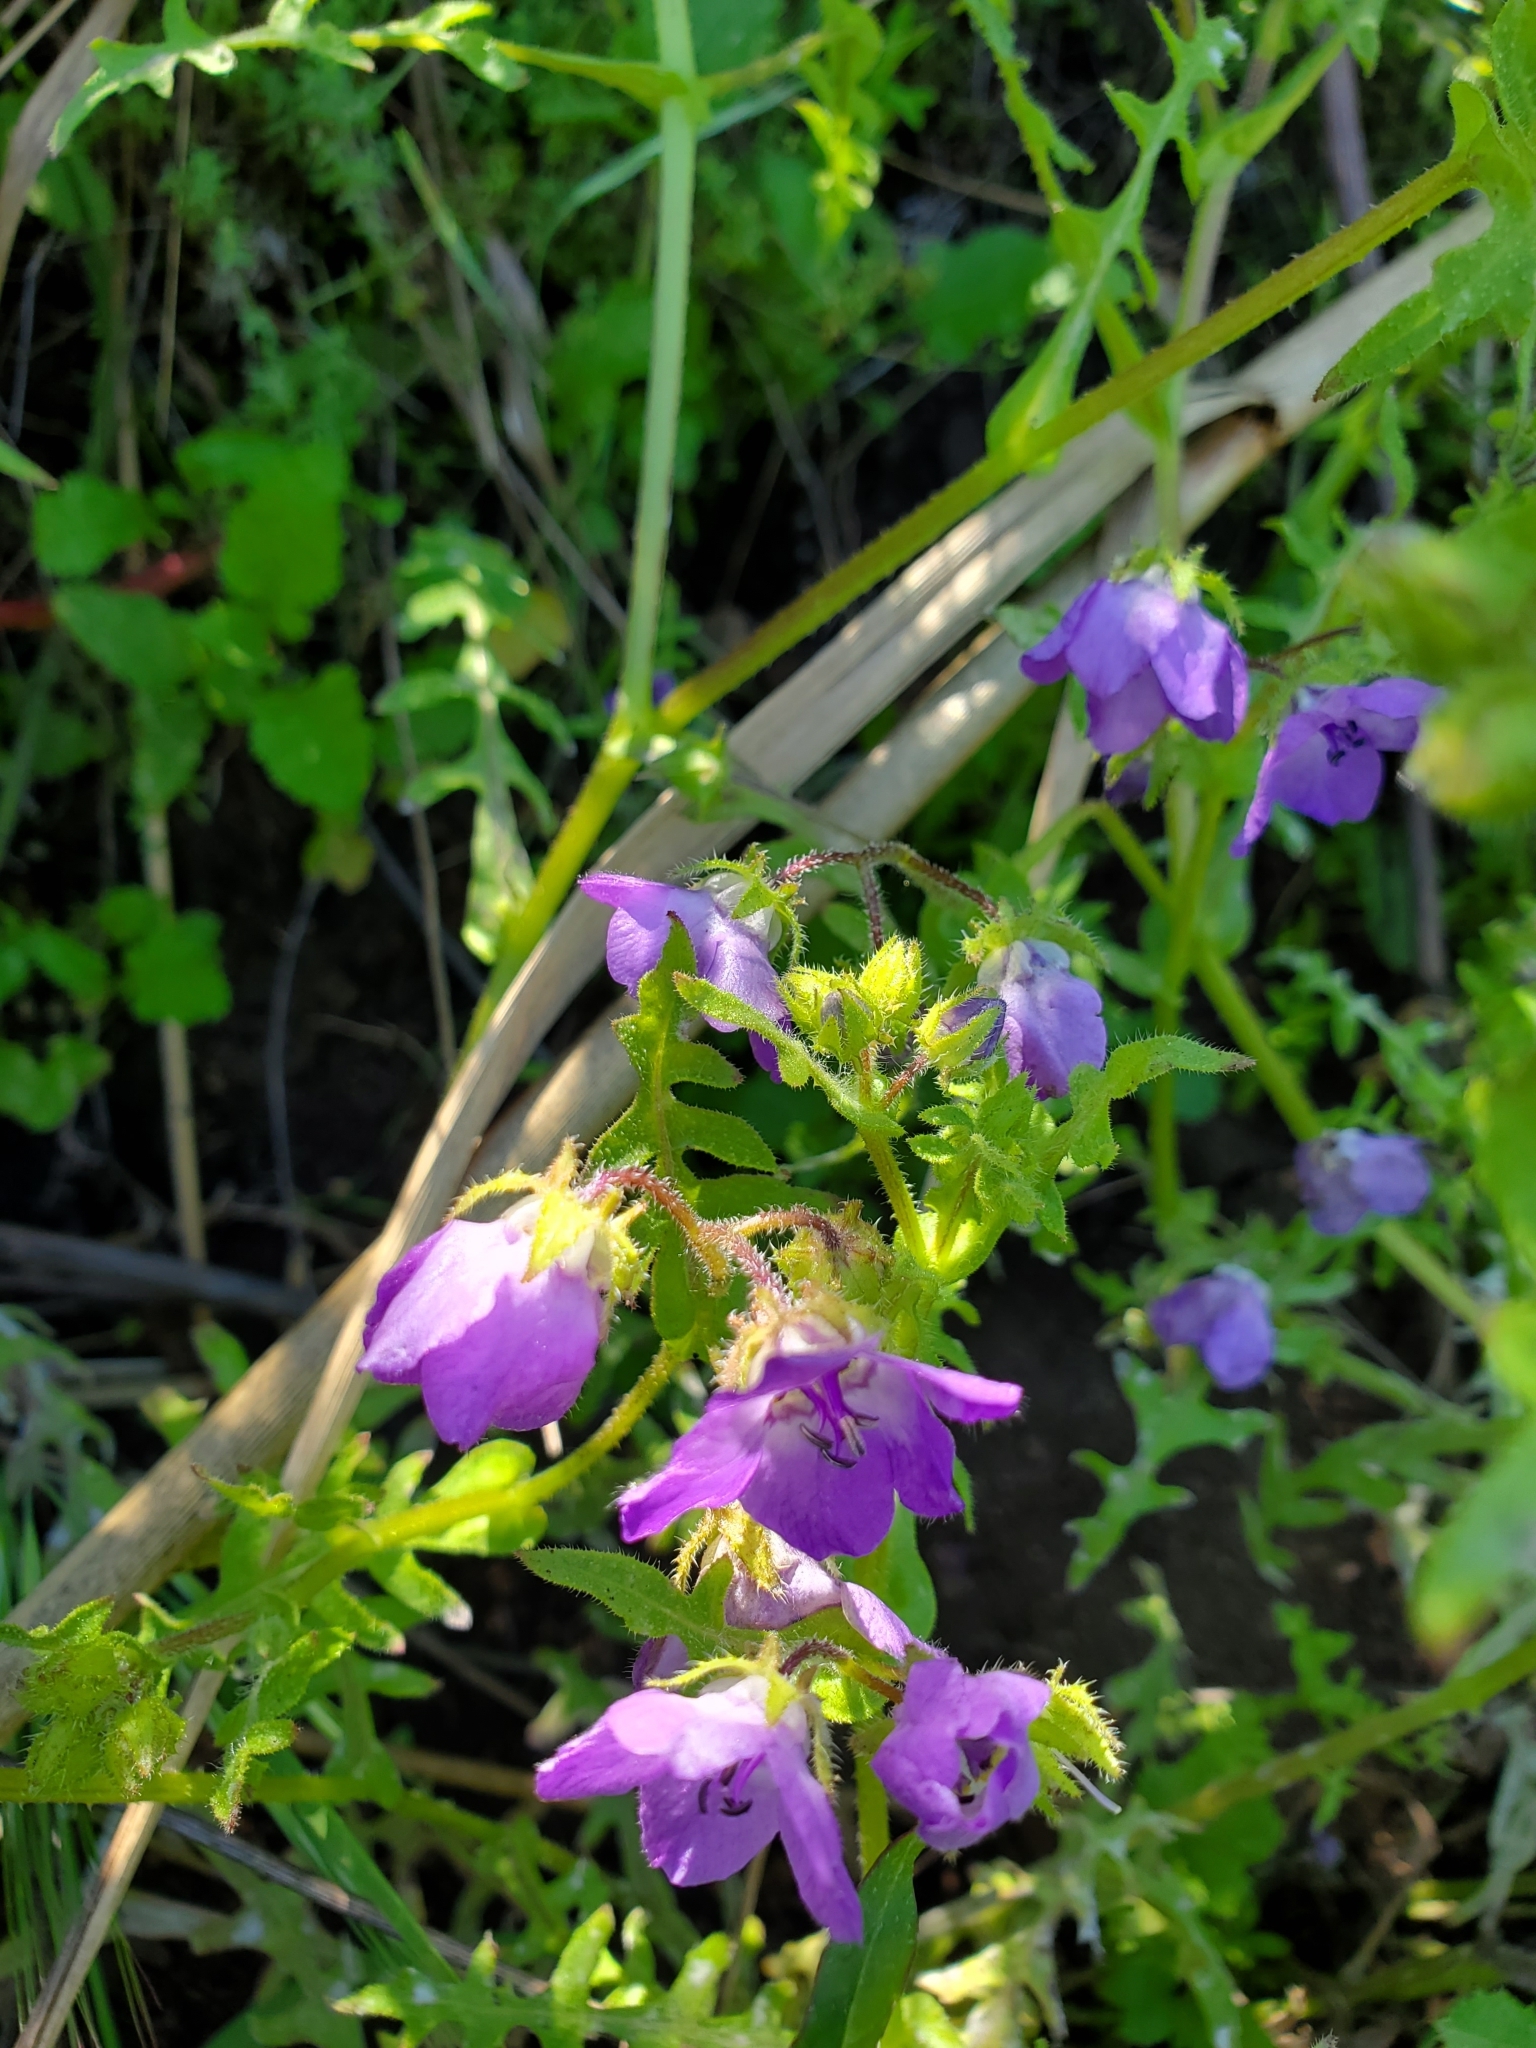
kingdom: Plantae
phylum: Tracheophyta
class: Magnoliopsida
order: Boraginales
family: Hydrophyllaceae
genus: Pholistoma
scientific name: Pholistoma auritum
